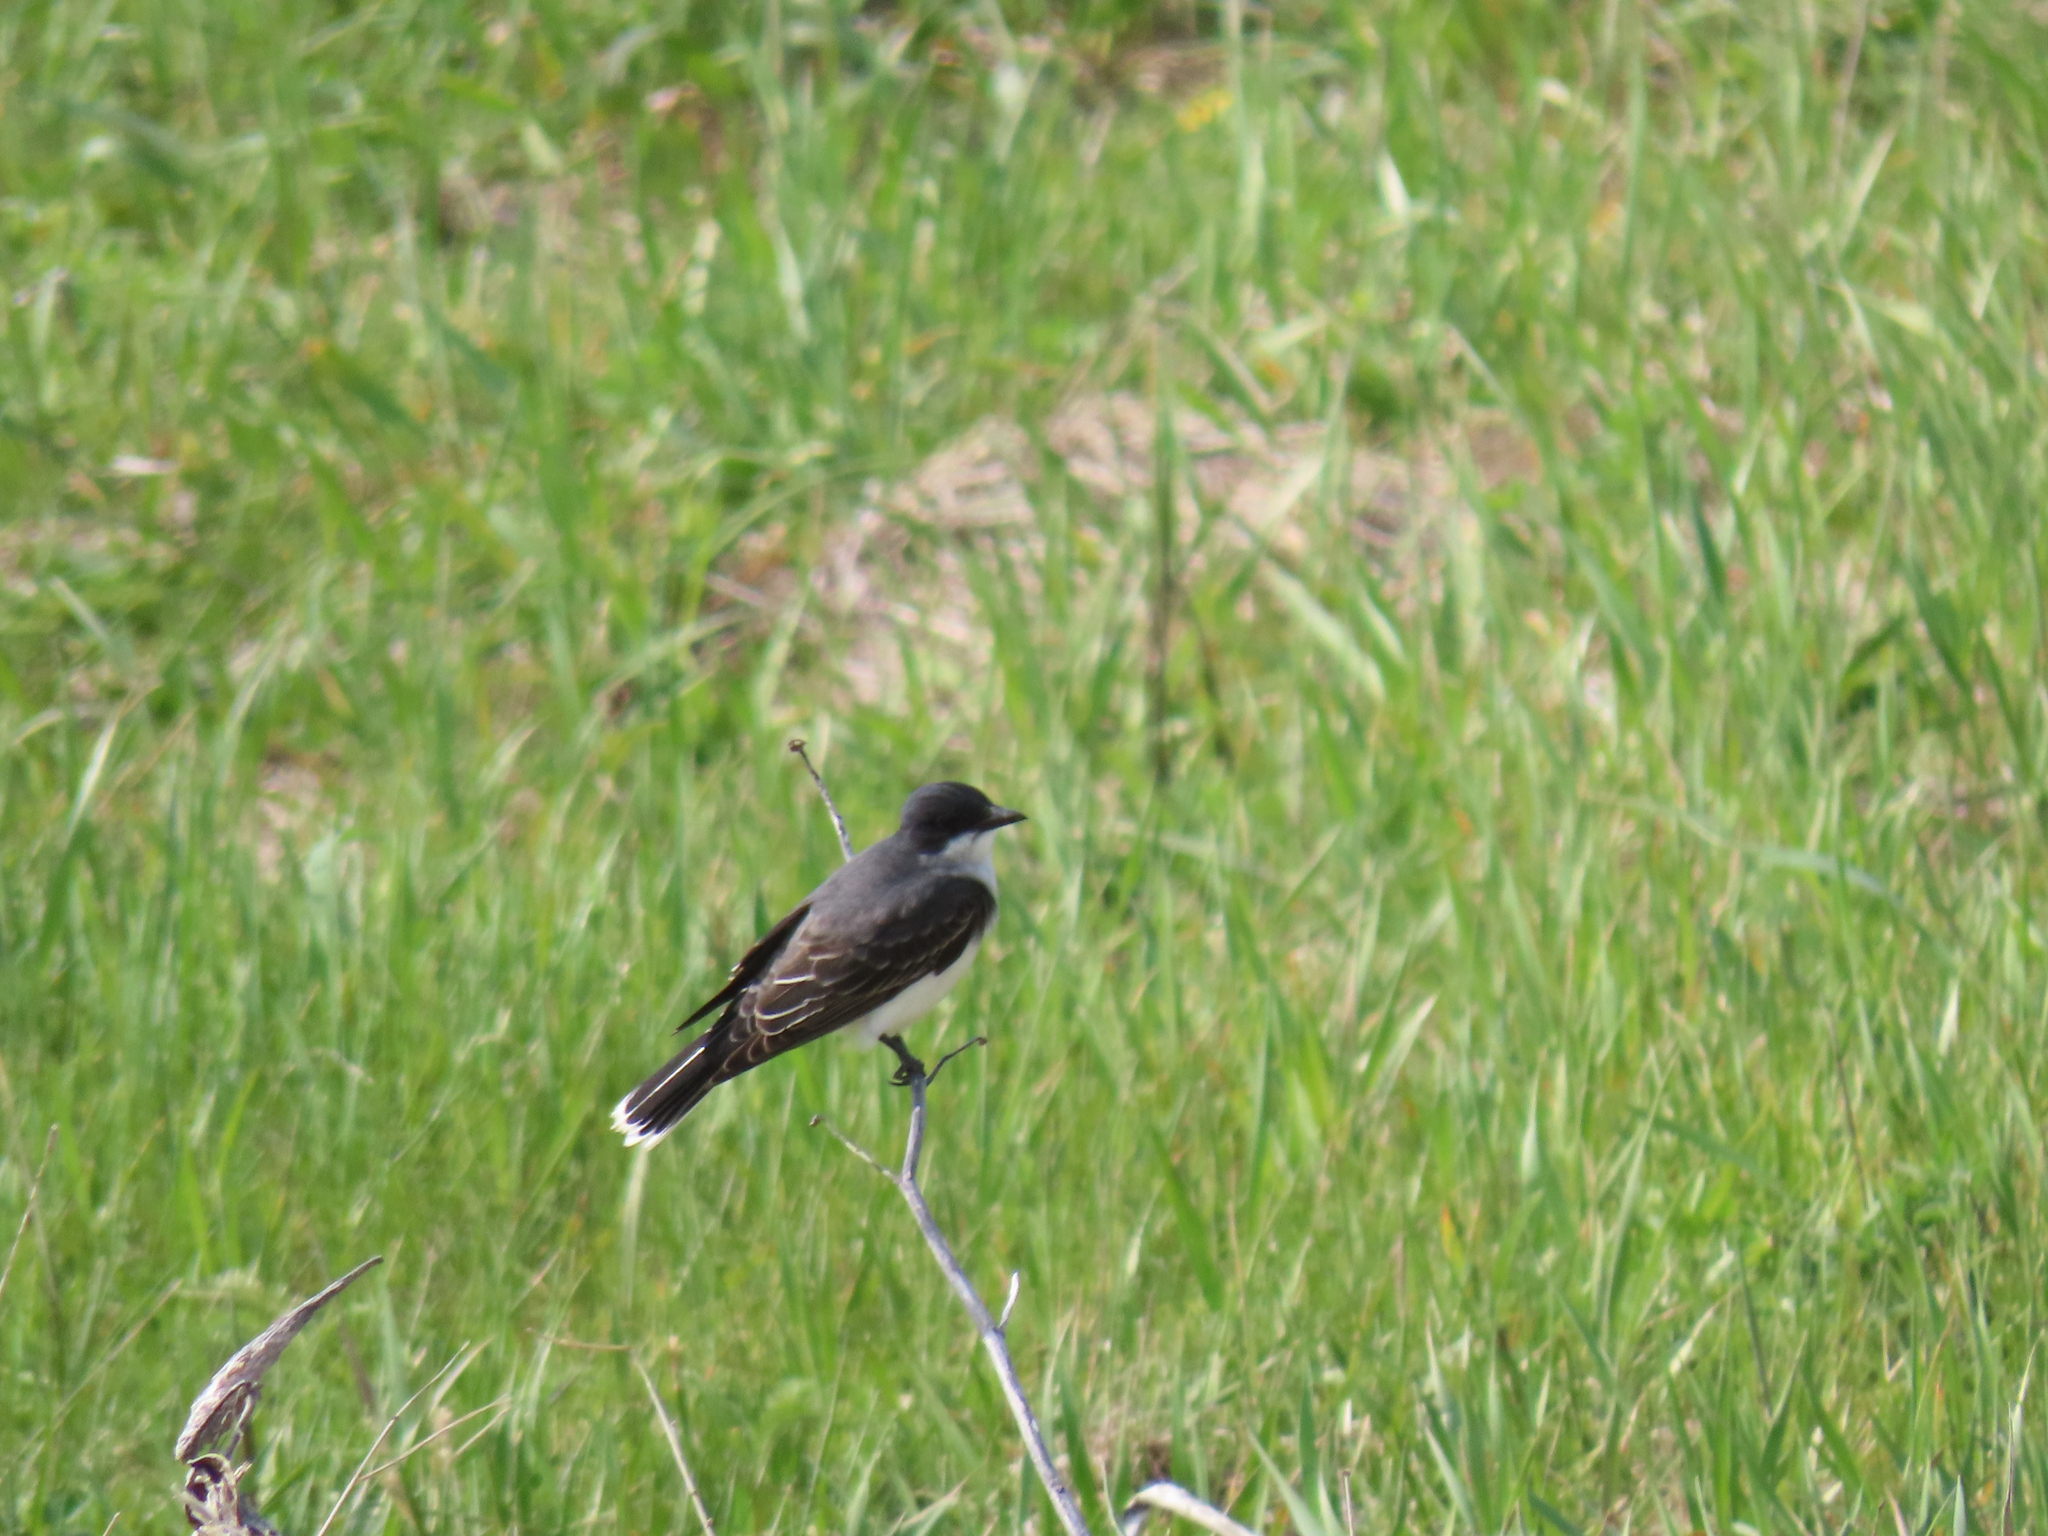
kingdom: Animalia
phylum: Chordata
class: Aves
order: Passeriformes
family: Tyrannidae
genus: Tyrannus
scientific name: Tyrannus tyrannus
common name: Eastern kingbird
